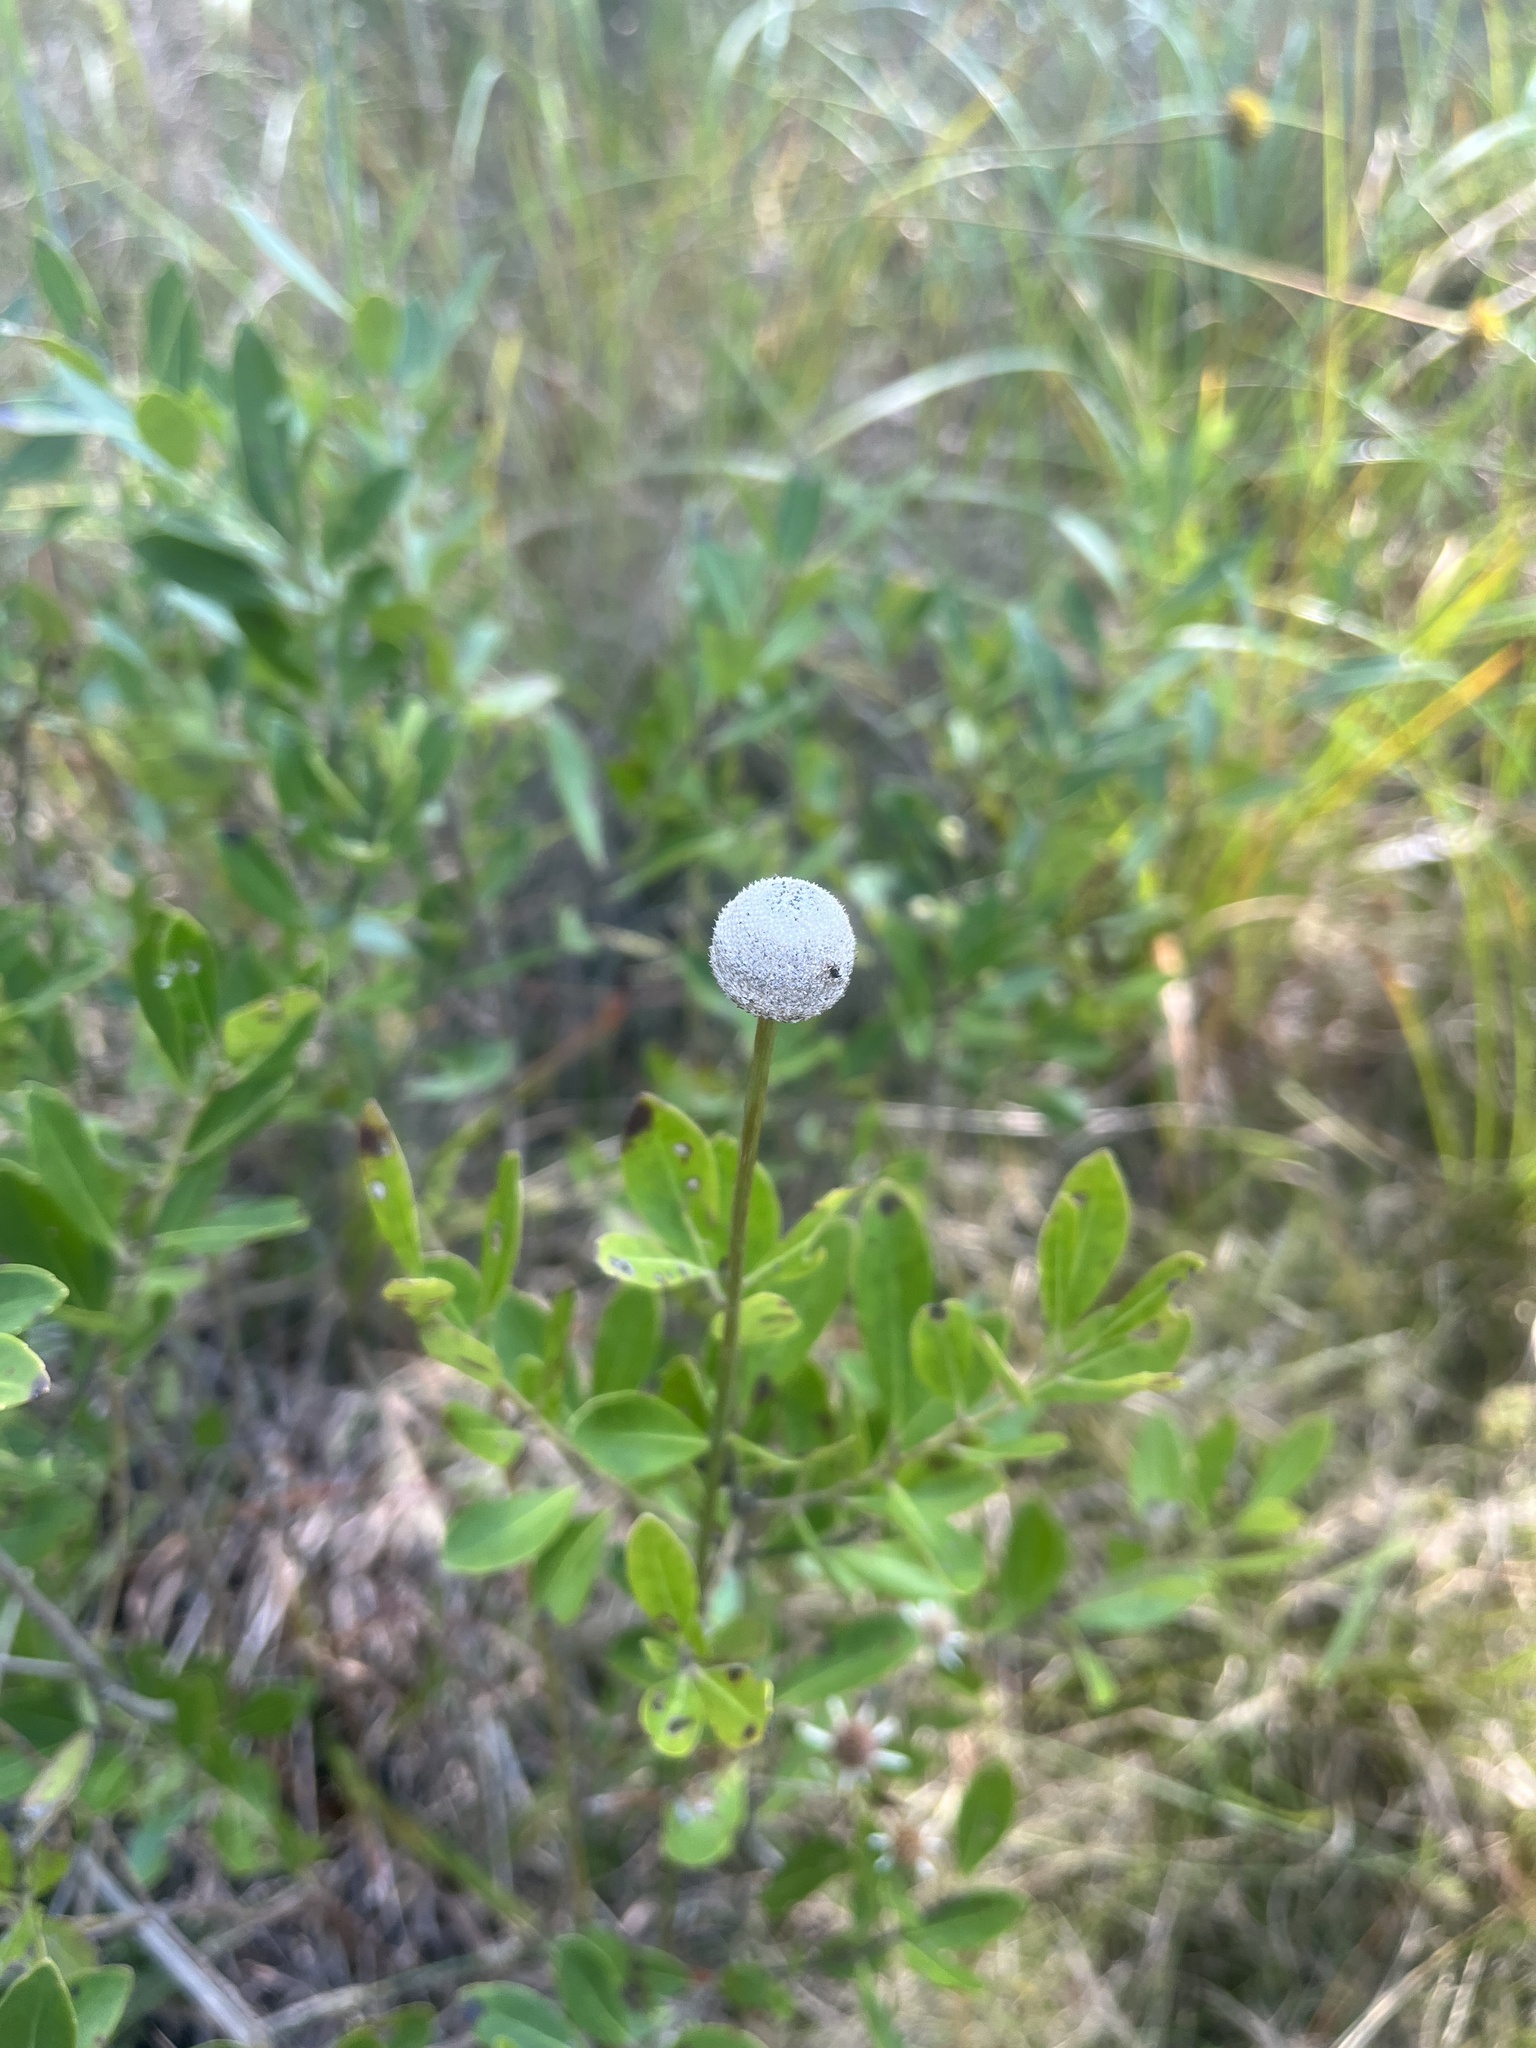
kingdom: Plantae
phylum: Tracheophyta
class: Liliopsida
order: Poales
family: Eriocaulaceae
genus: Eriocaulon
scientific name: Eriocaulon decangulare
